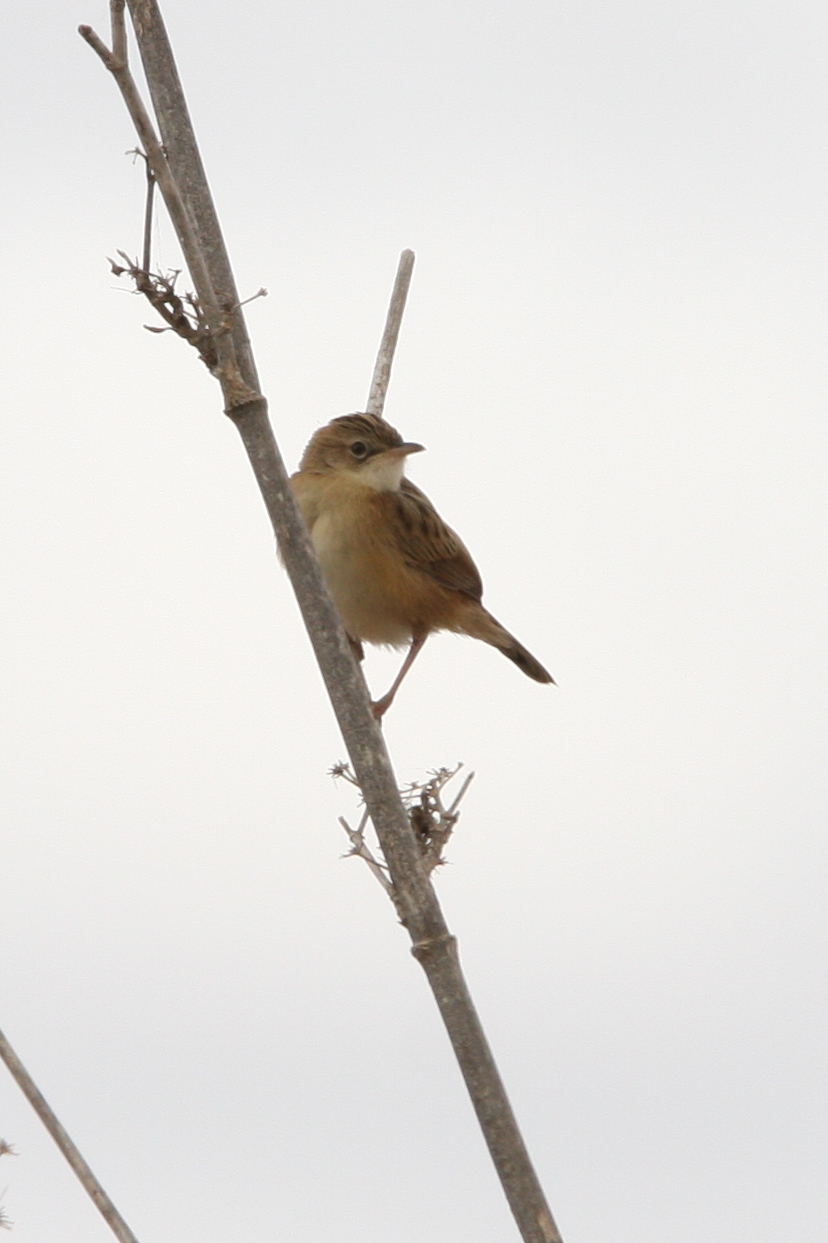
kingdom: Animalia
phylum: Chordata
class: Aves
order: Passeriformes
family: Cisticolidae
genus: Cisticola
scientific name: Cisticola juncidis
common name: Zitting cisticola
